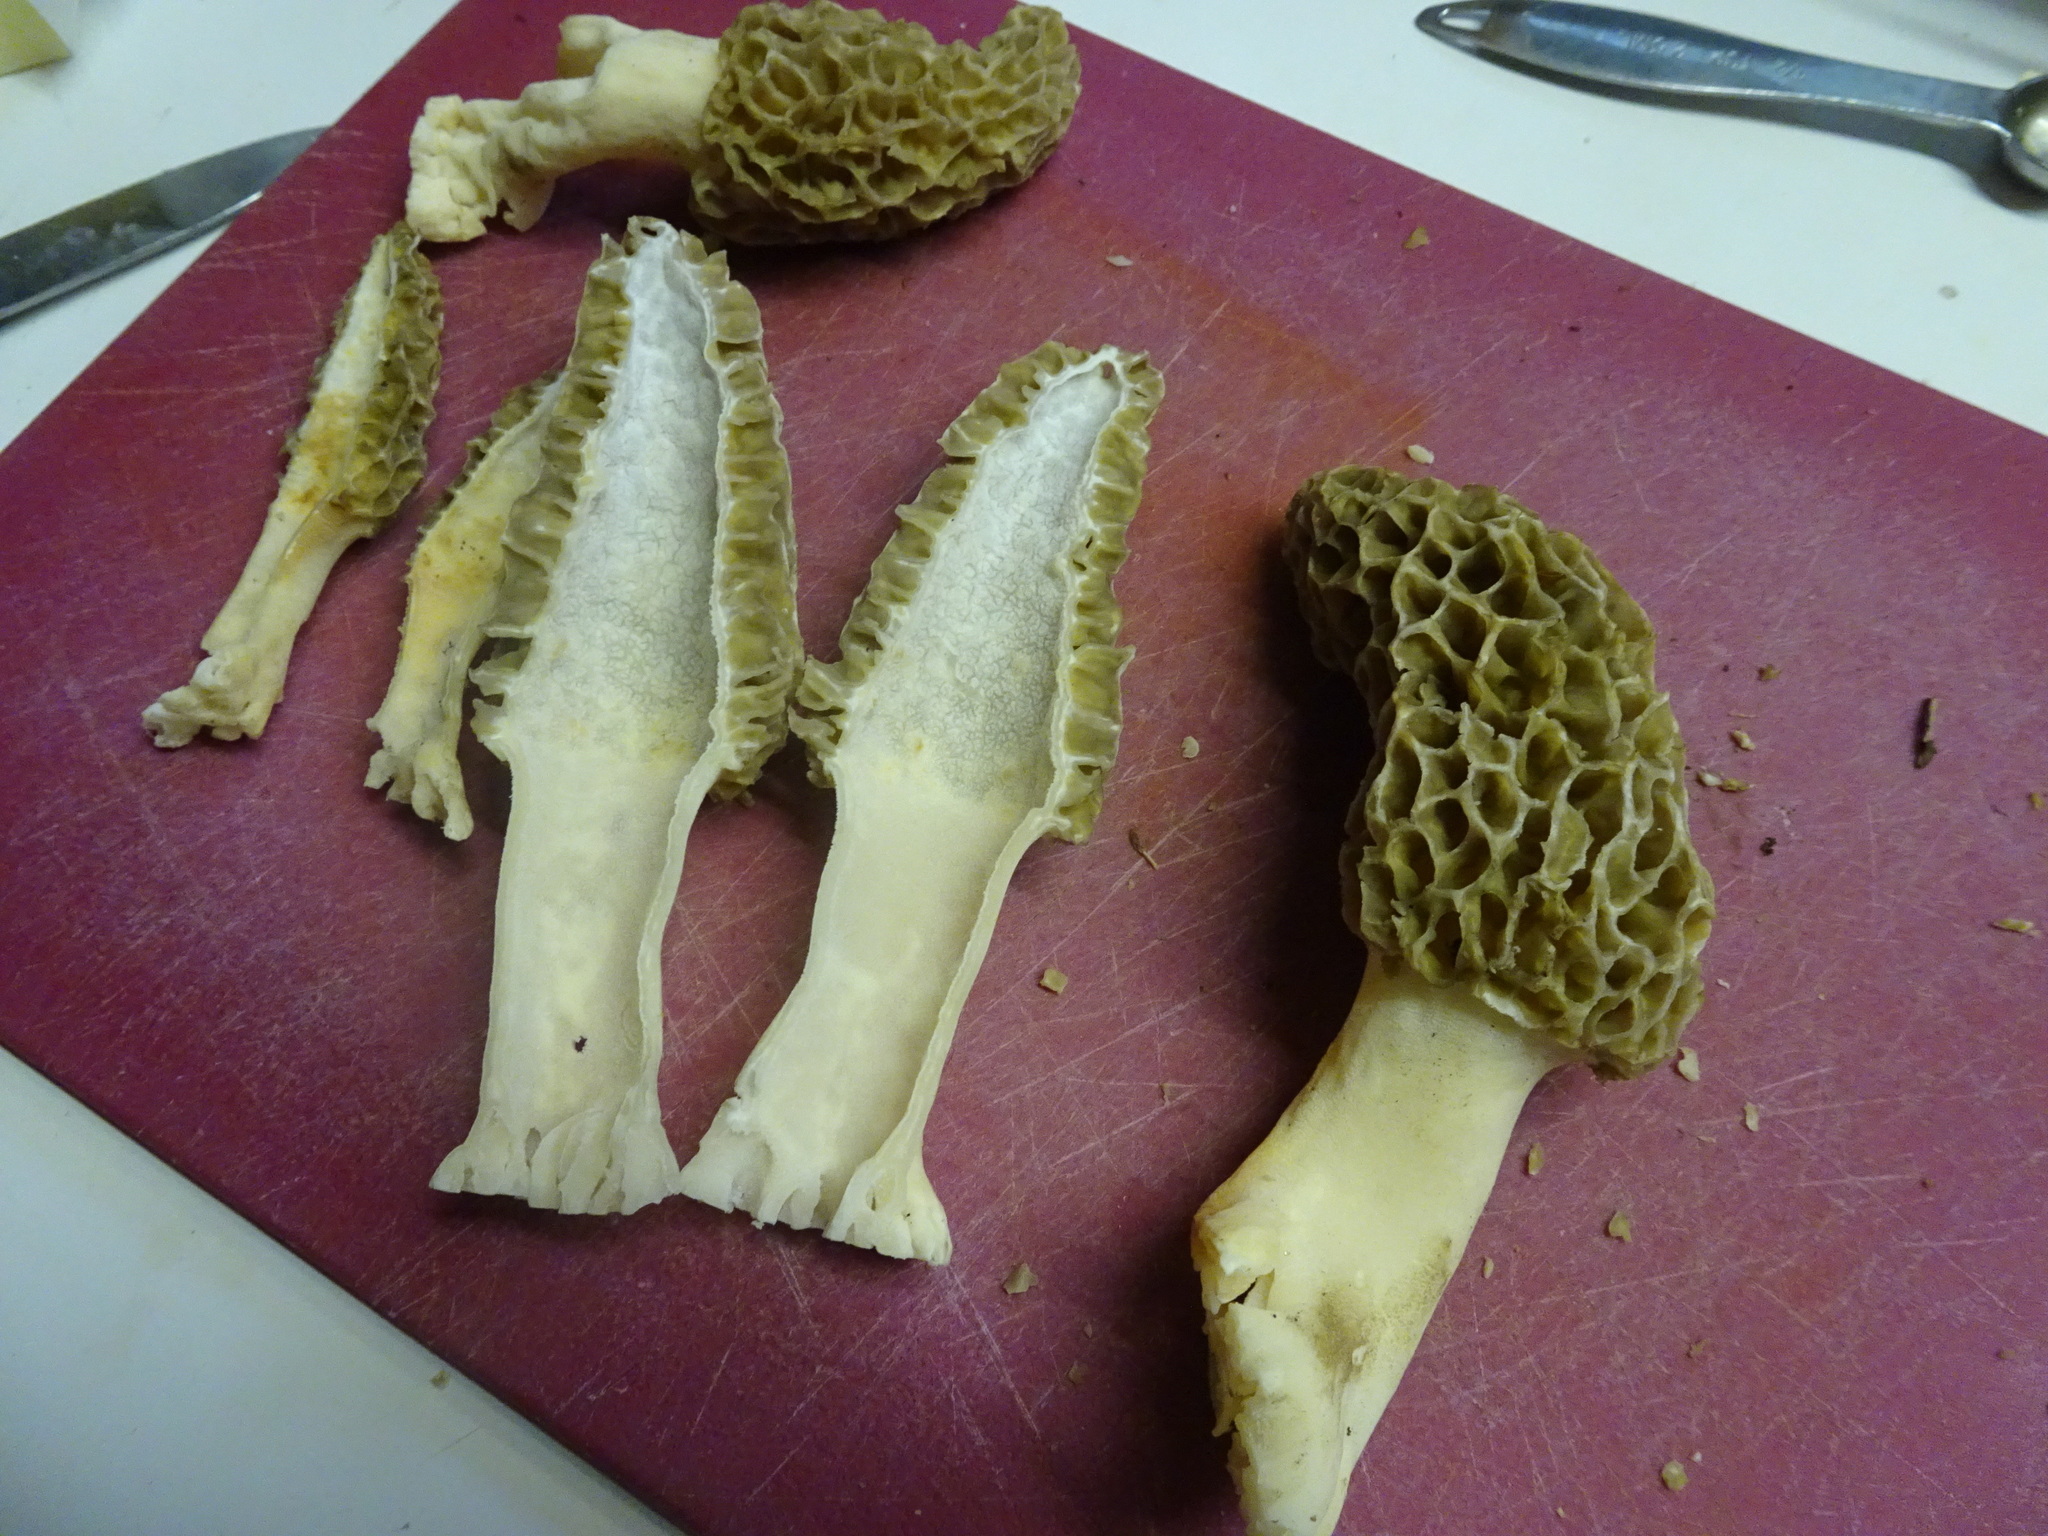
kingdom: Fungi
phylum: Ascomycota
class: Pezizomycetes
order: Pezizales
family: Morchellaceae
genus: Morchella
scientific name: Morchella americana
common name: White morel
